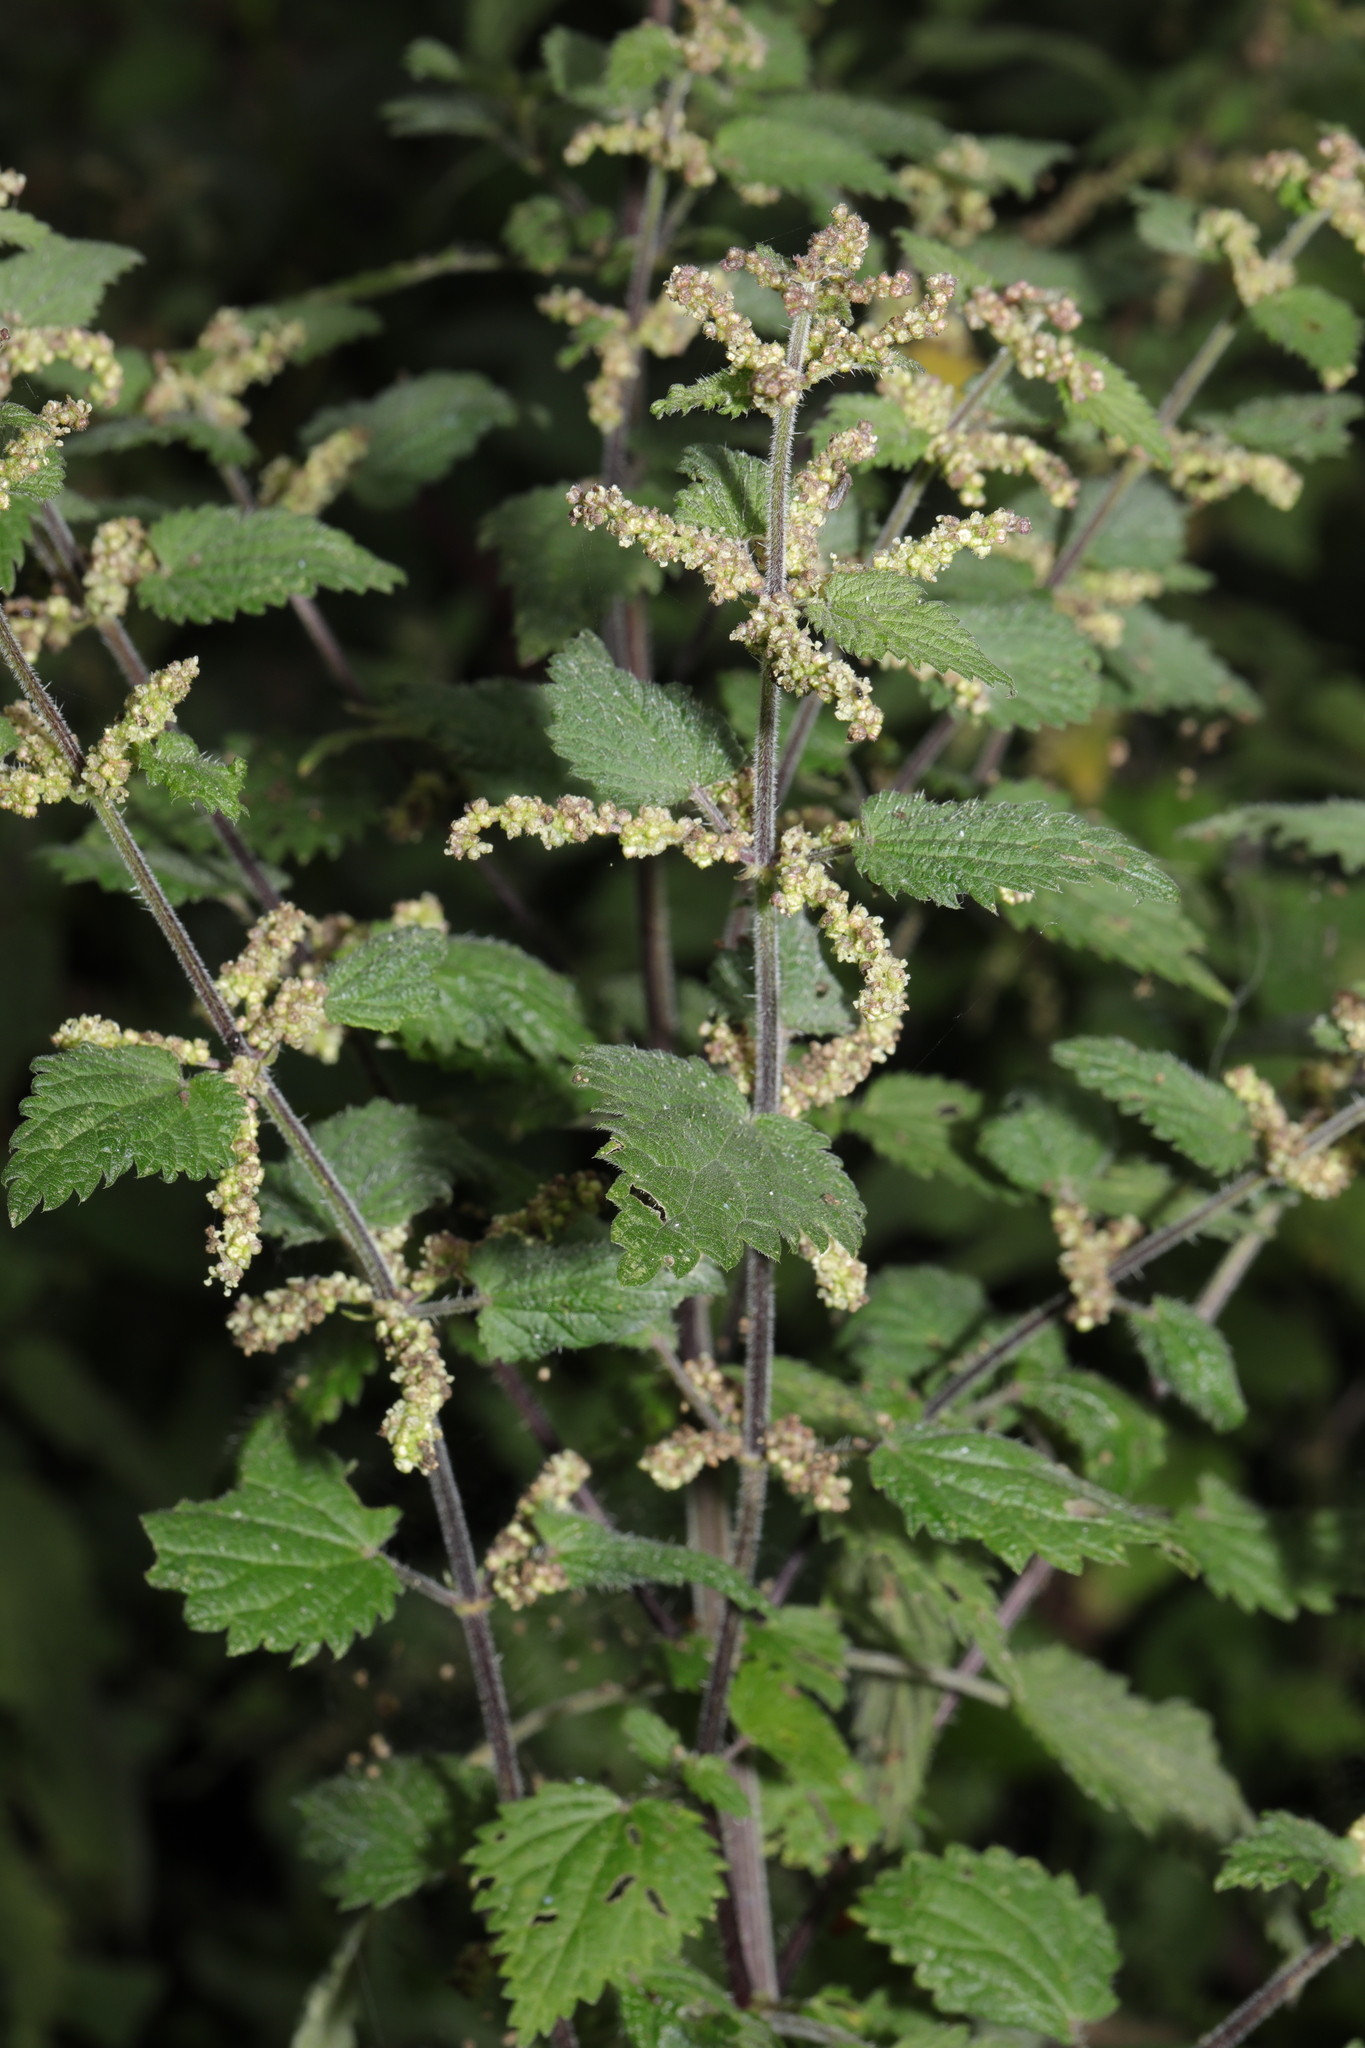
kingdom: Plantae
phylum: Tracheophyta
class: Magnoliopsida
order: Rosales
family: Urticaceae
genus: Urtica
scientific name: Urtica dioica
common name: Common nettle
